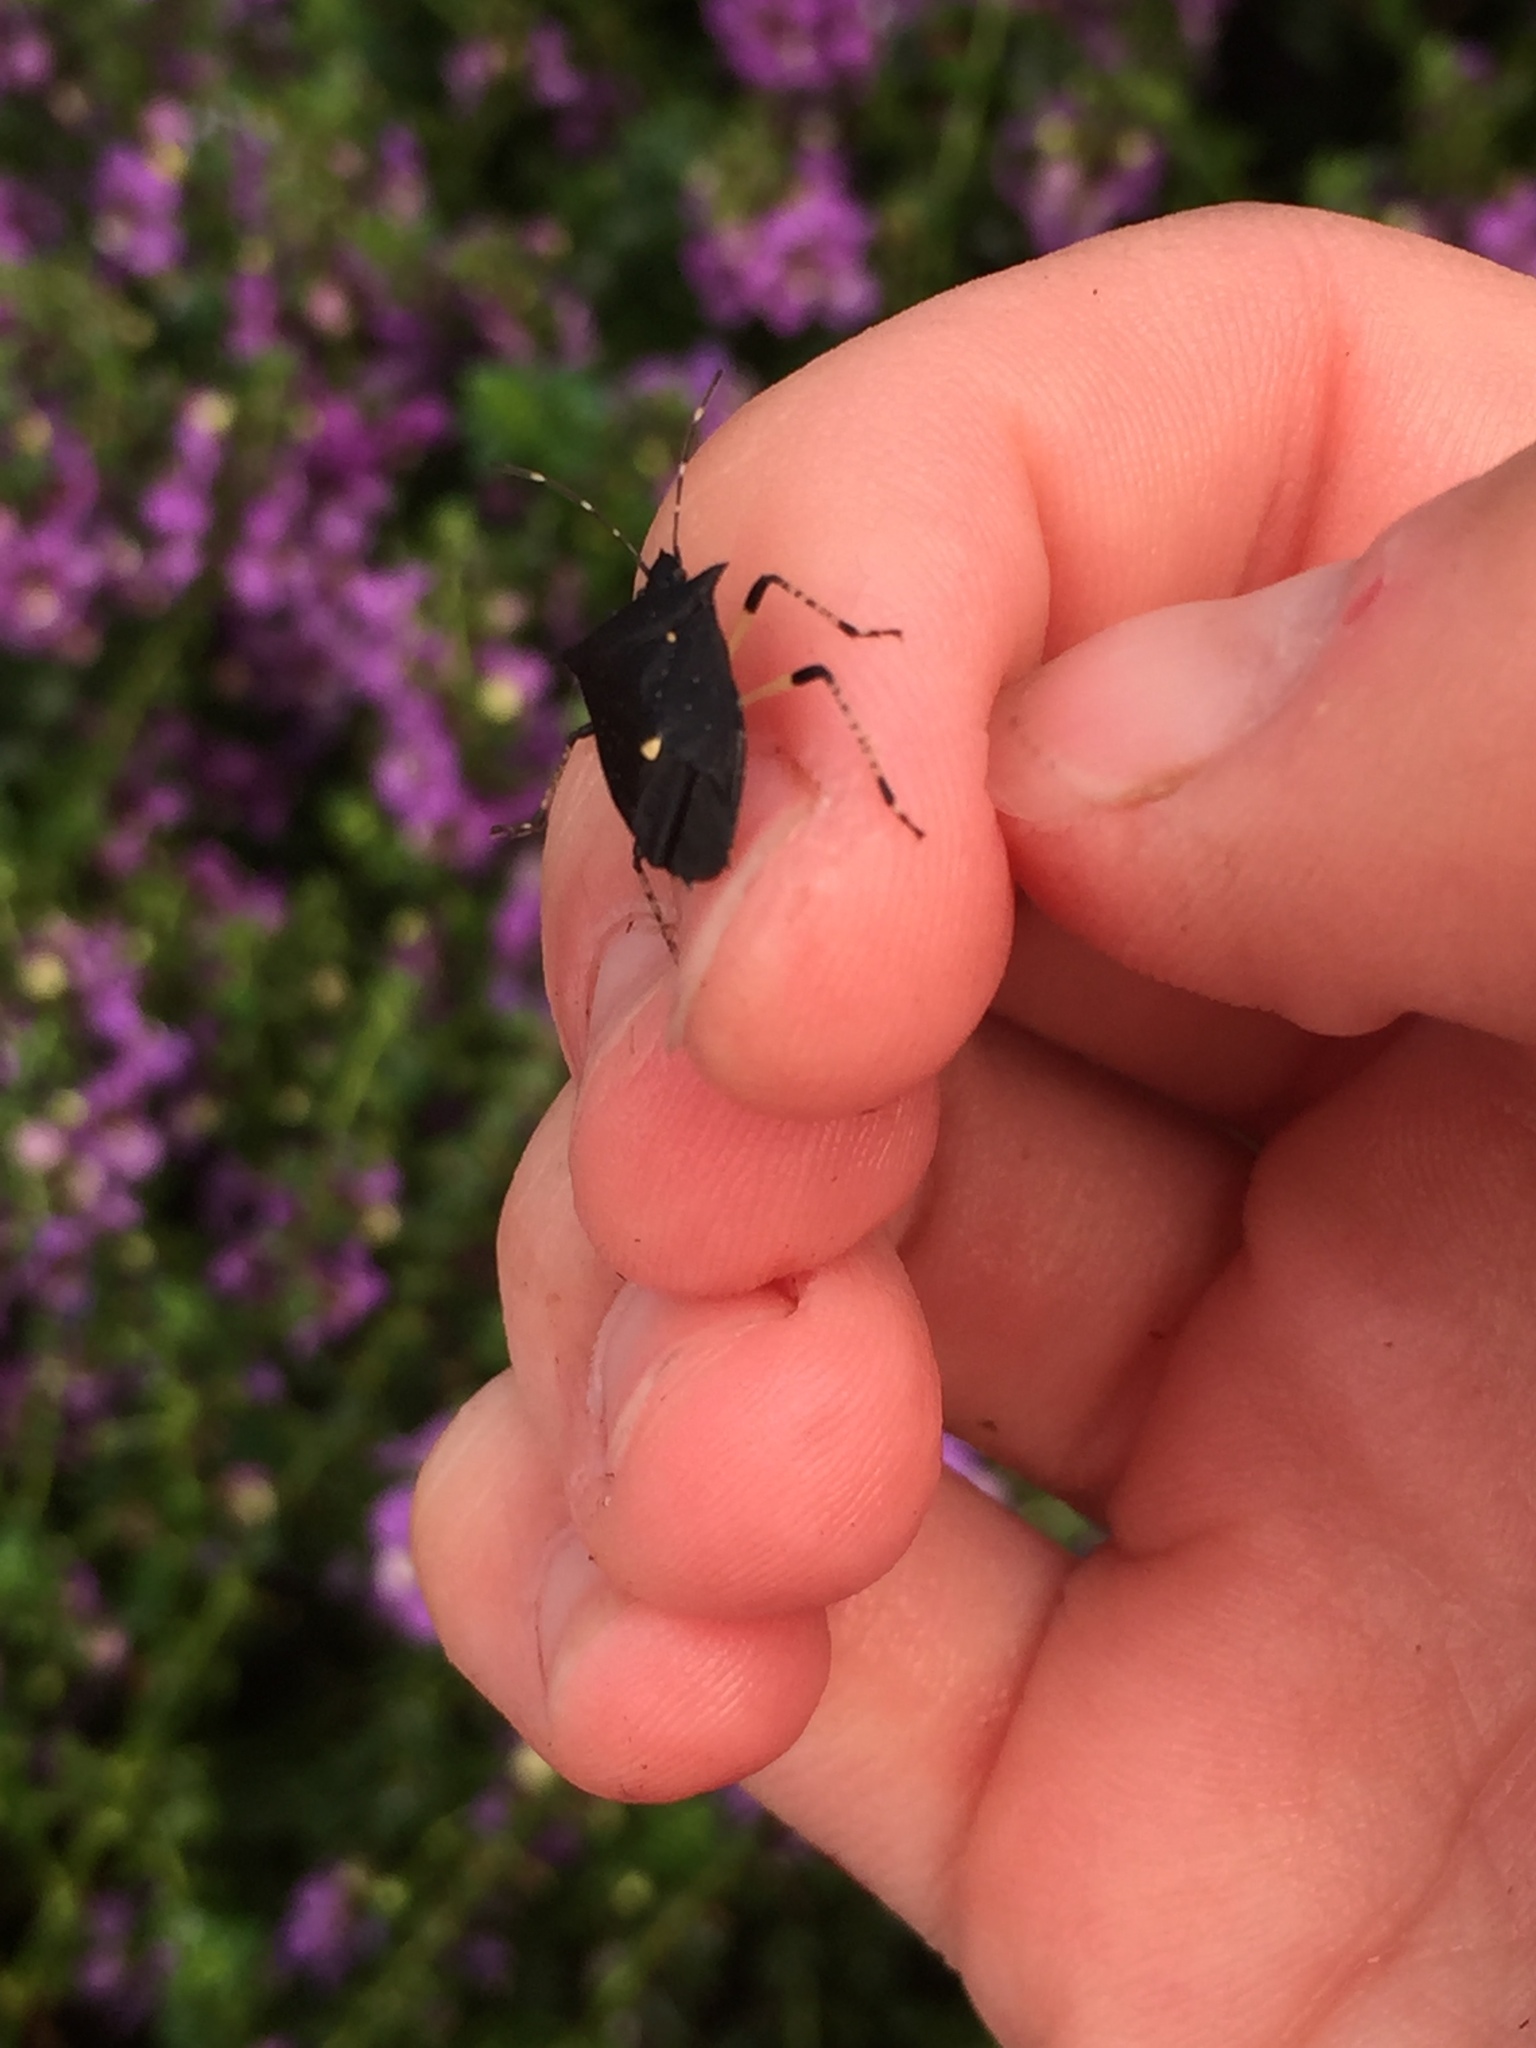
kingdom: Animalia
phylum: Arthropoda
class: Insecta
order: Hemiptera
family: Pentatomidae
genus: Proxys
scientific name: Proxys punctulatus
